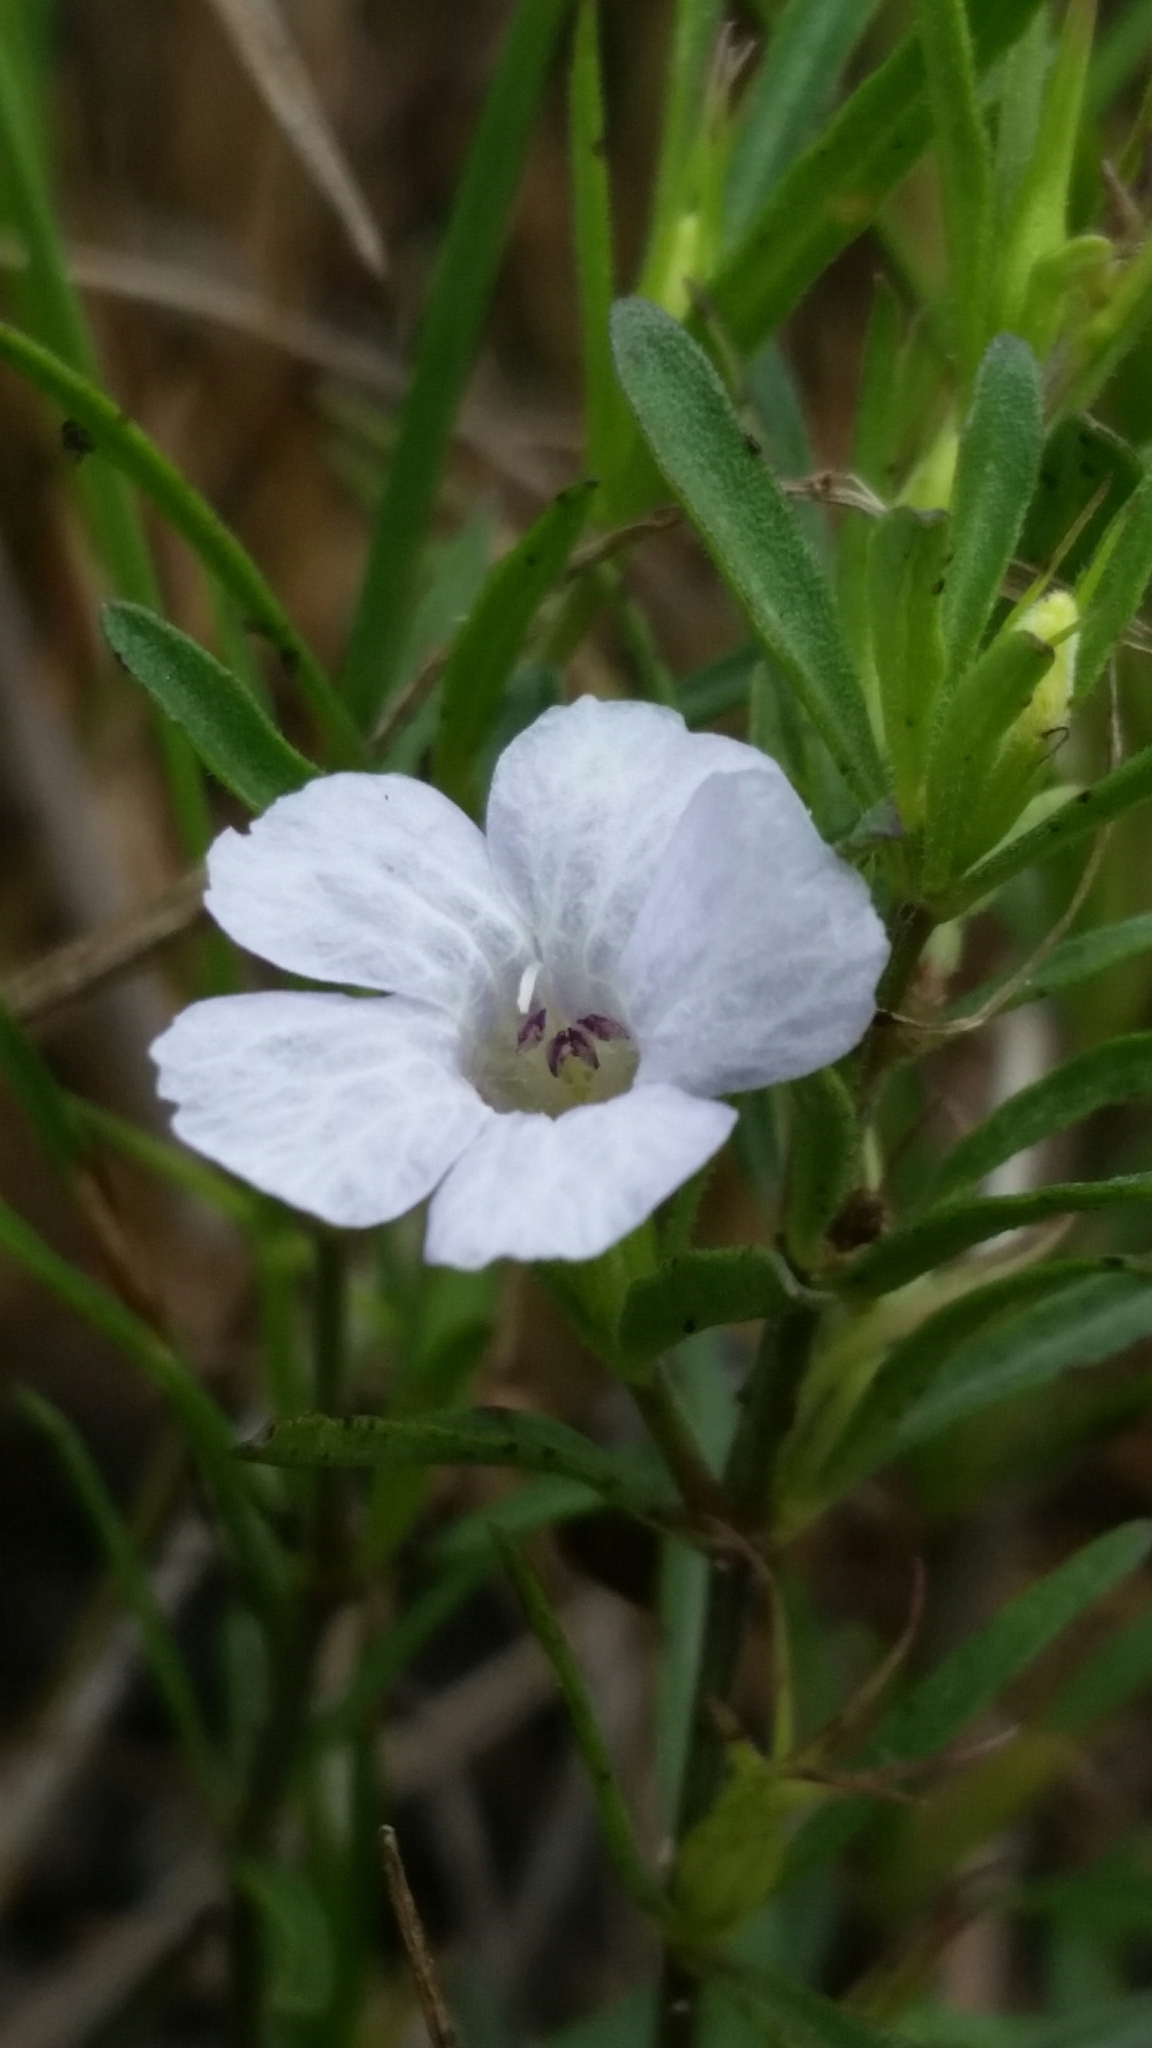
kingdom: Plantae
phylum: Tracheophyta
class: Magnoliopsida
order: Lamiales
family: Acanthaceae
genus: Dyschoriste
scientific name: Dyschoriste angusta
